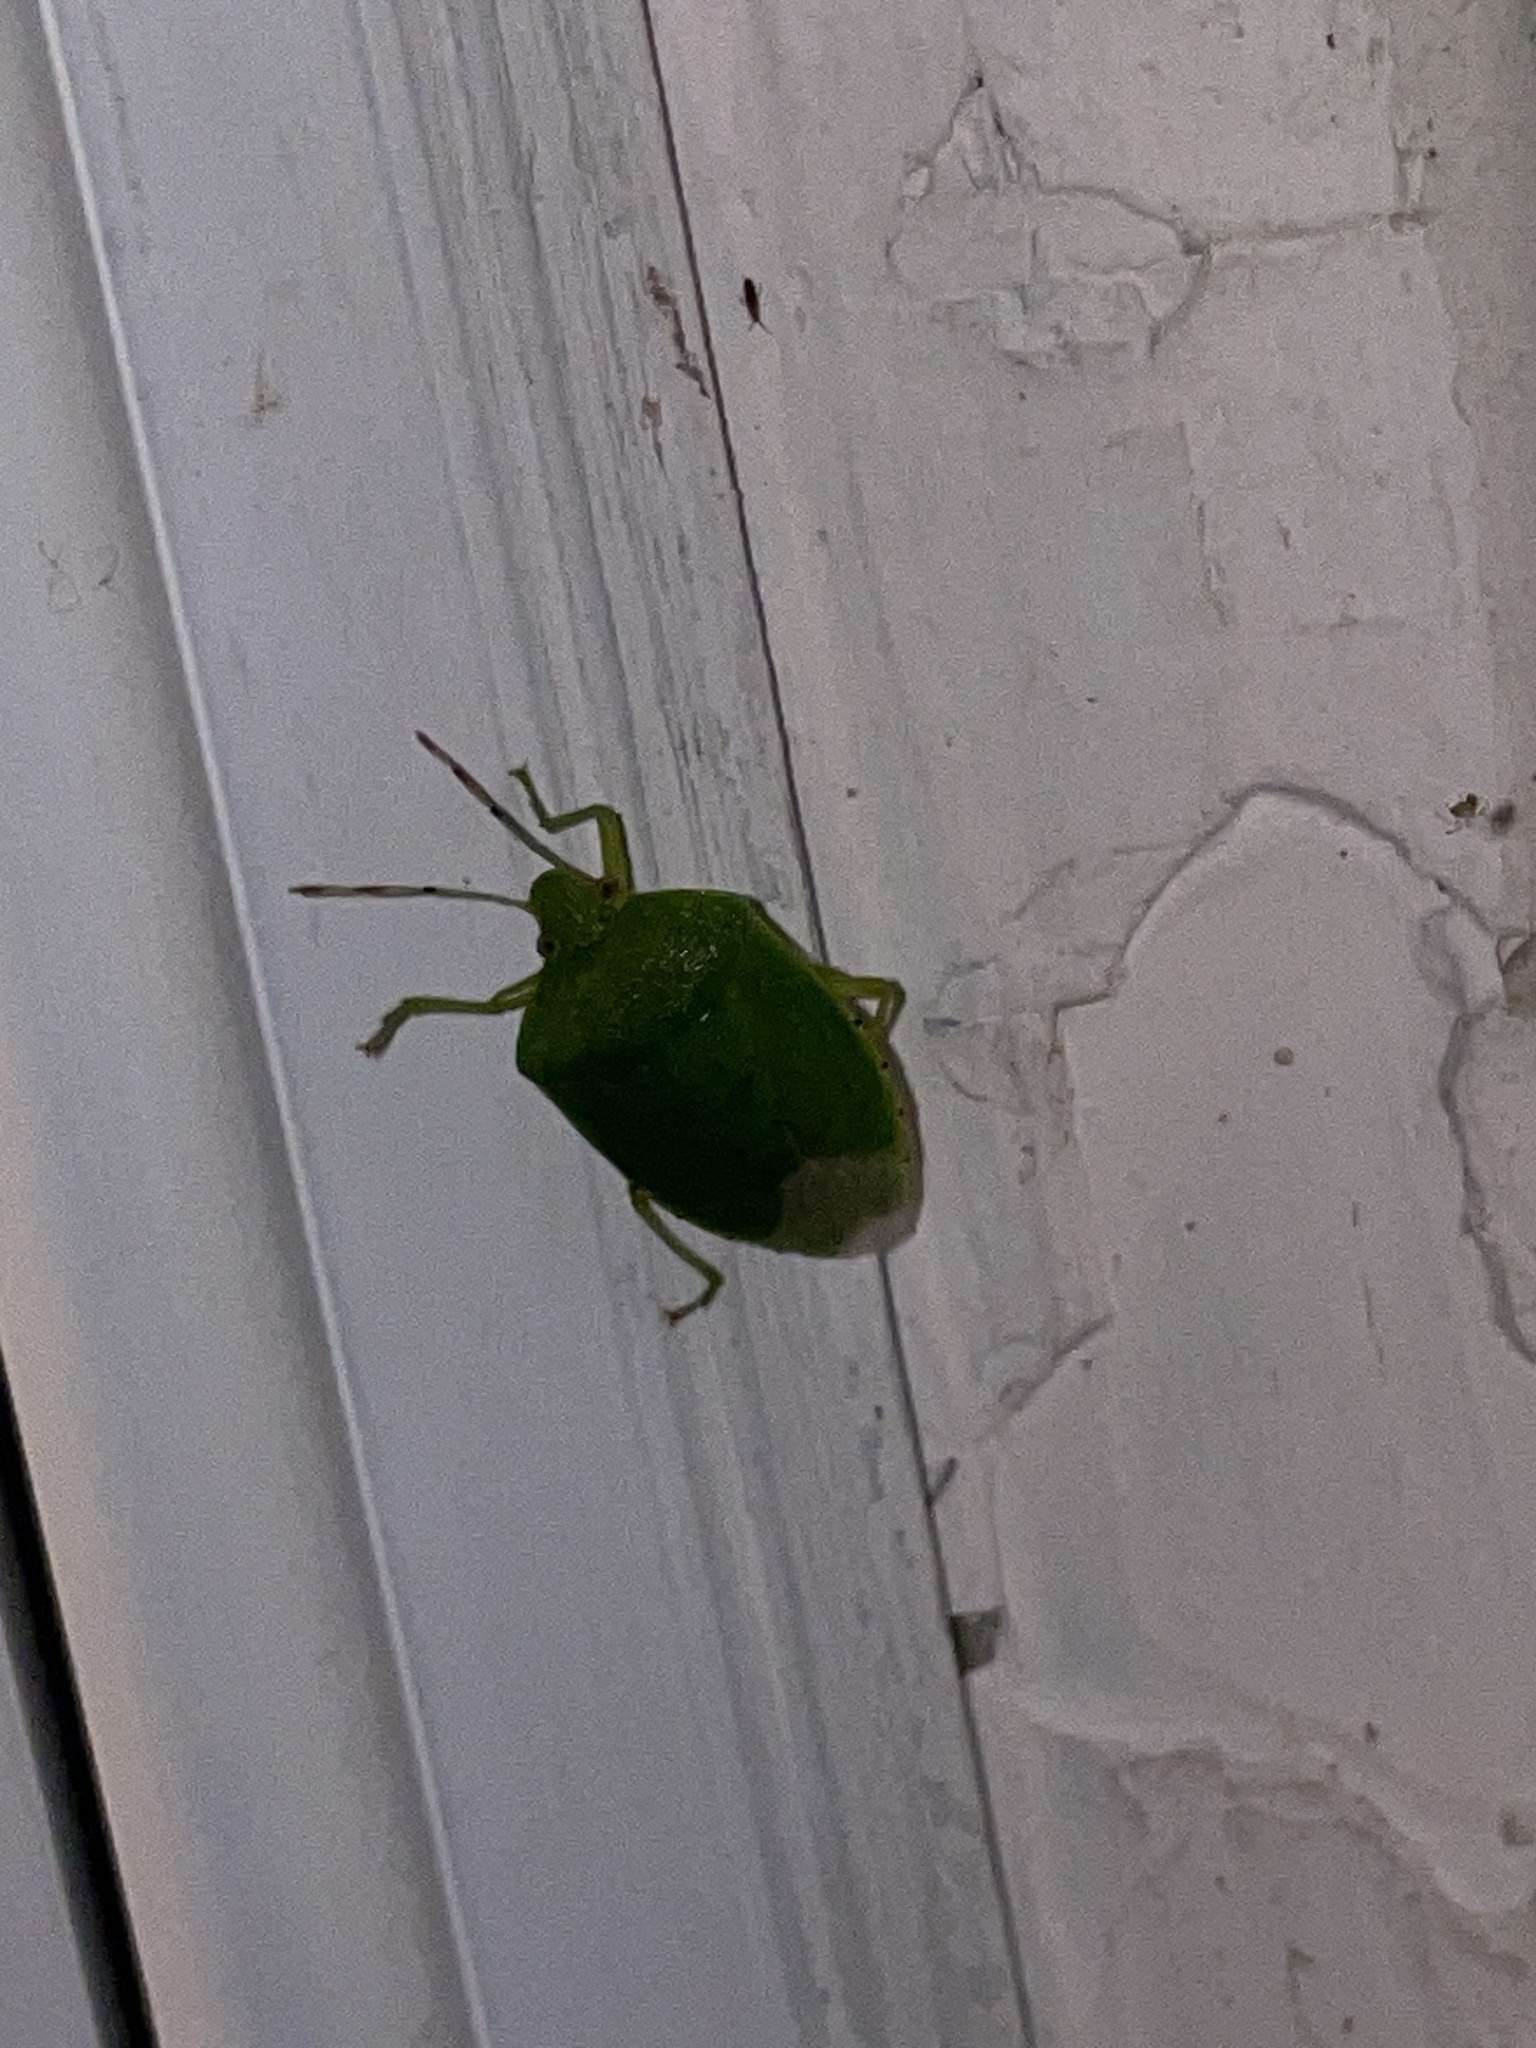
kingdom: Animalia
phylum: Arthropoda
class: Insecta
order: Hemiptera
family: Pentatomidae
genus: Chinavia
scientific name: Chinavia hilaris
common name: Green stink bug
